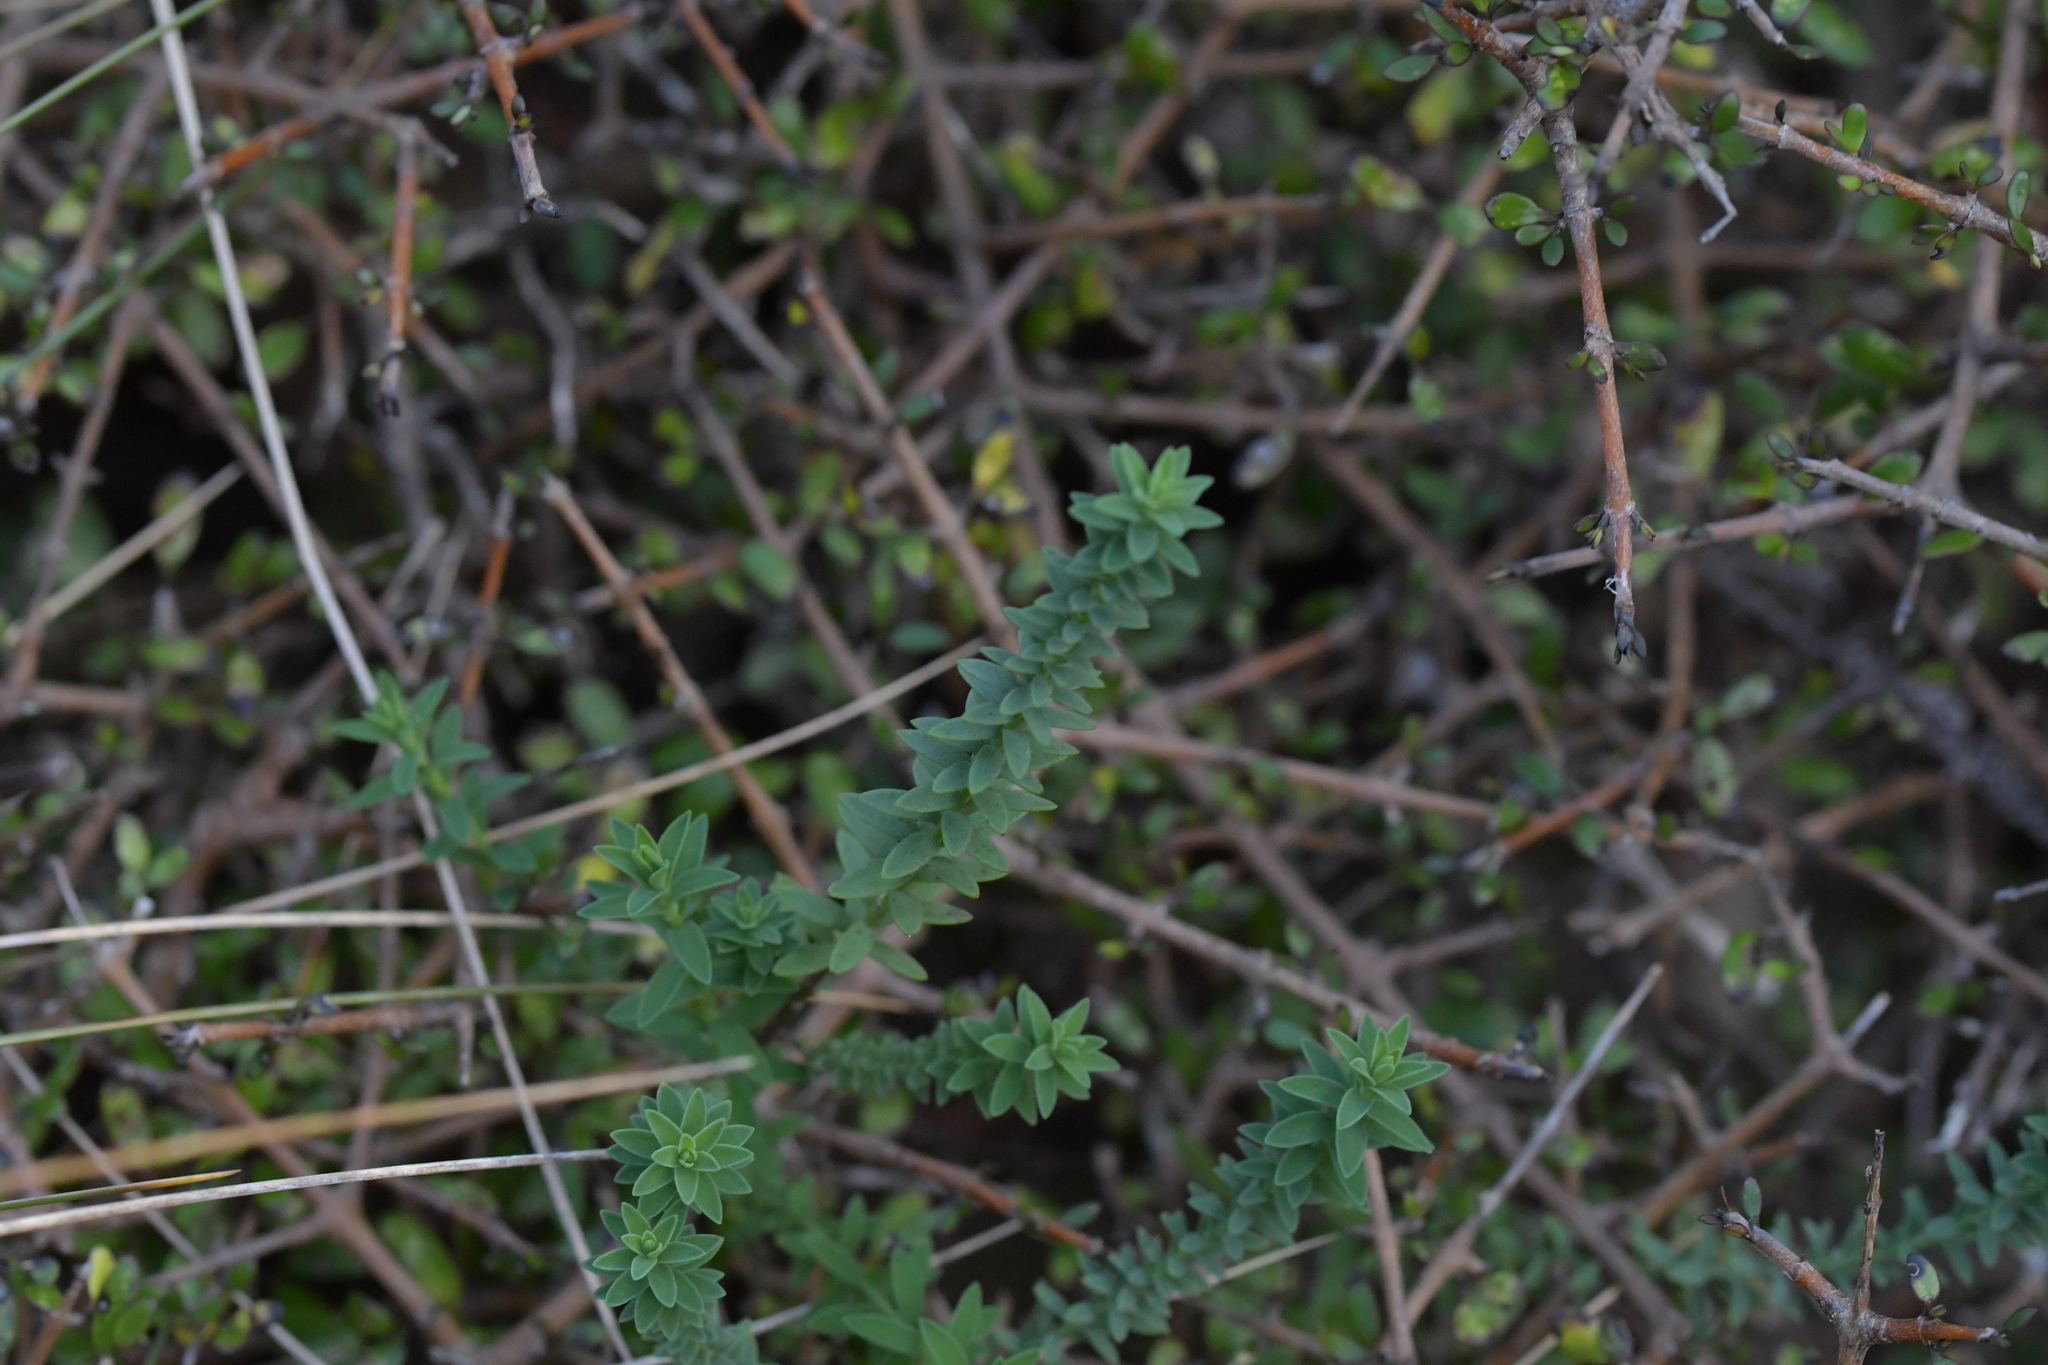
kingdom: Plantae
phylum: Tracheophyta
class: Magnoliopsida
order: Malpighiales
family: Linaceae
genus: Linum
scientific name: Linum monogynum
